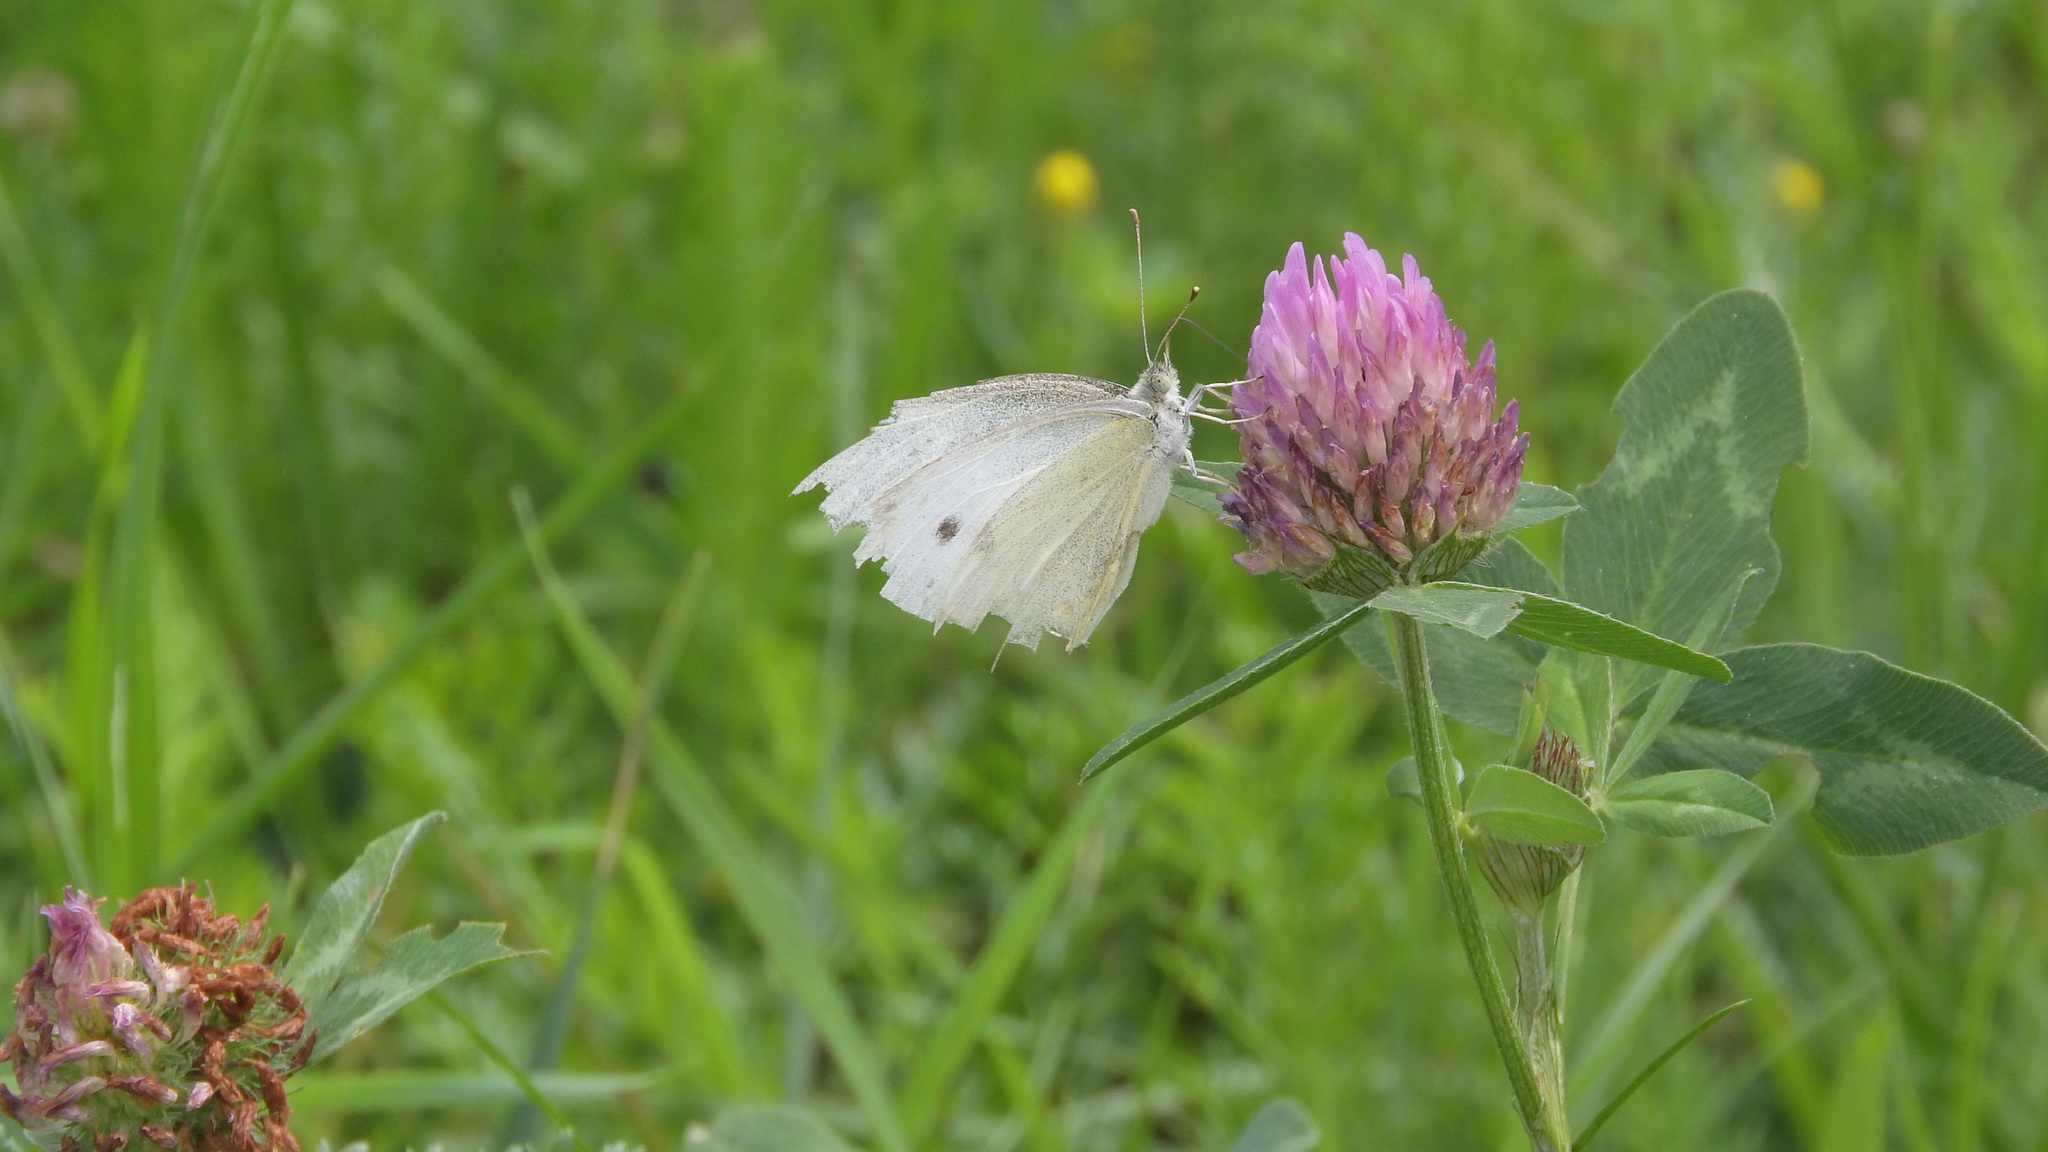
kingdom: Animalia
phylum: Arthropoda
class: Insecta
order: Lepidoptera
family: Pieridae
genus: Pieris
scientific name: Pieris rapae
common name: Small white
